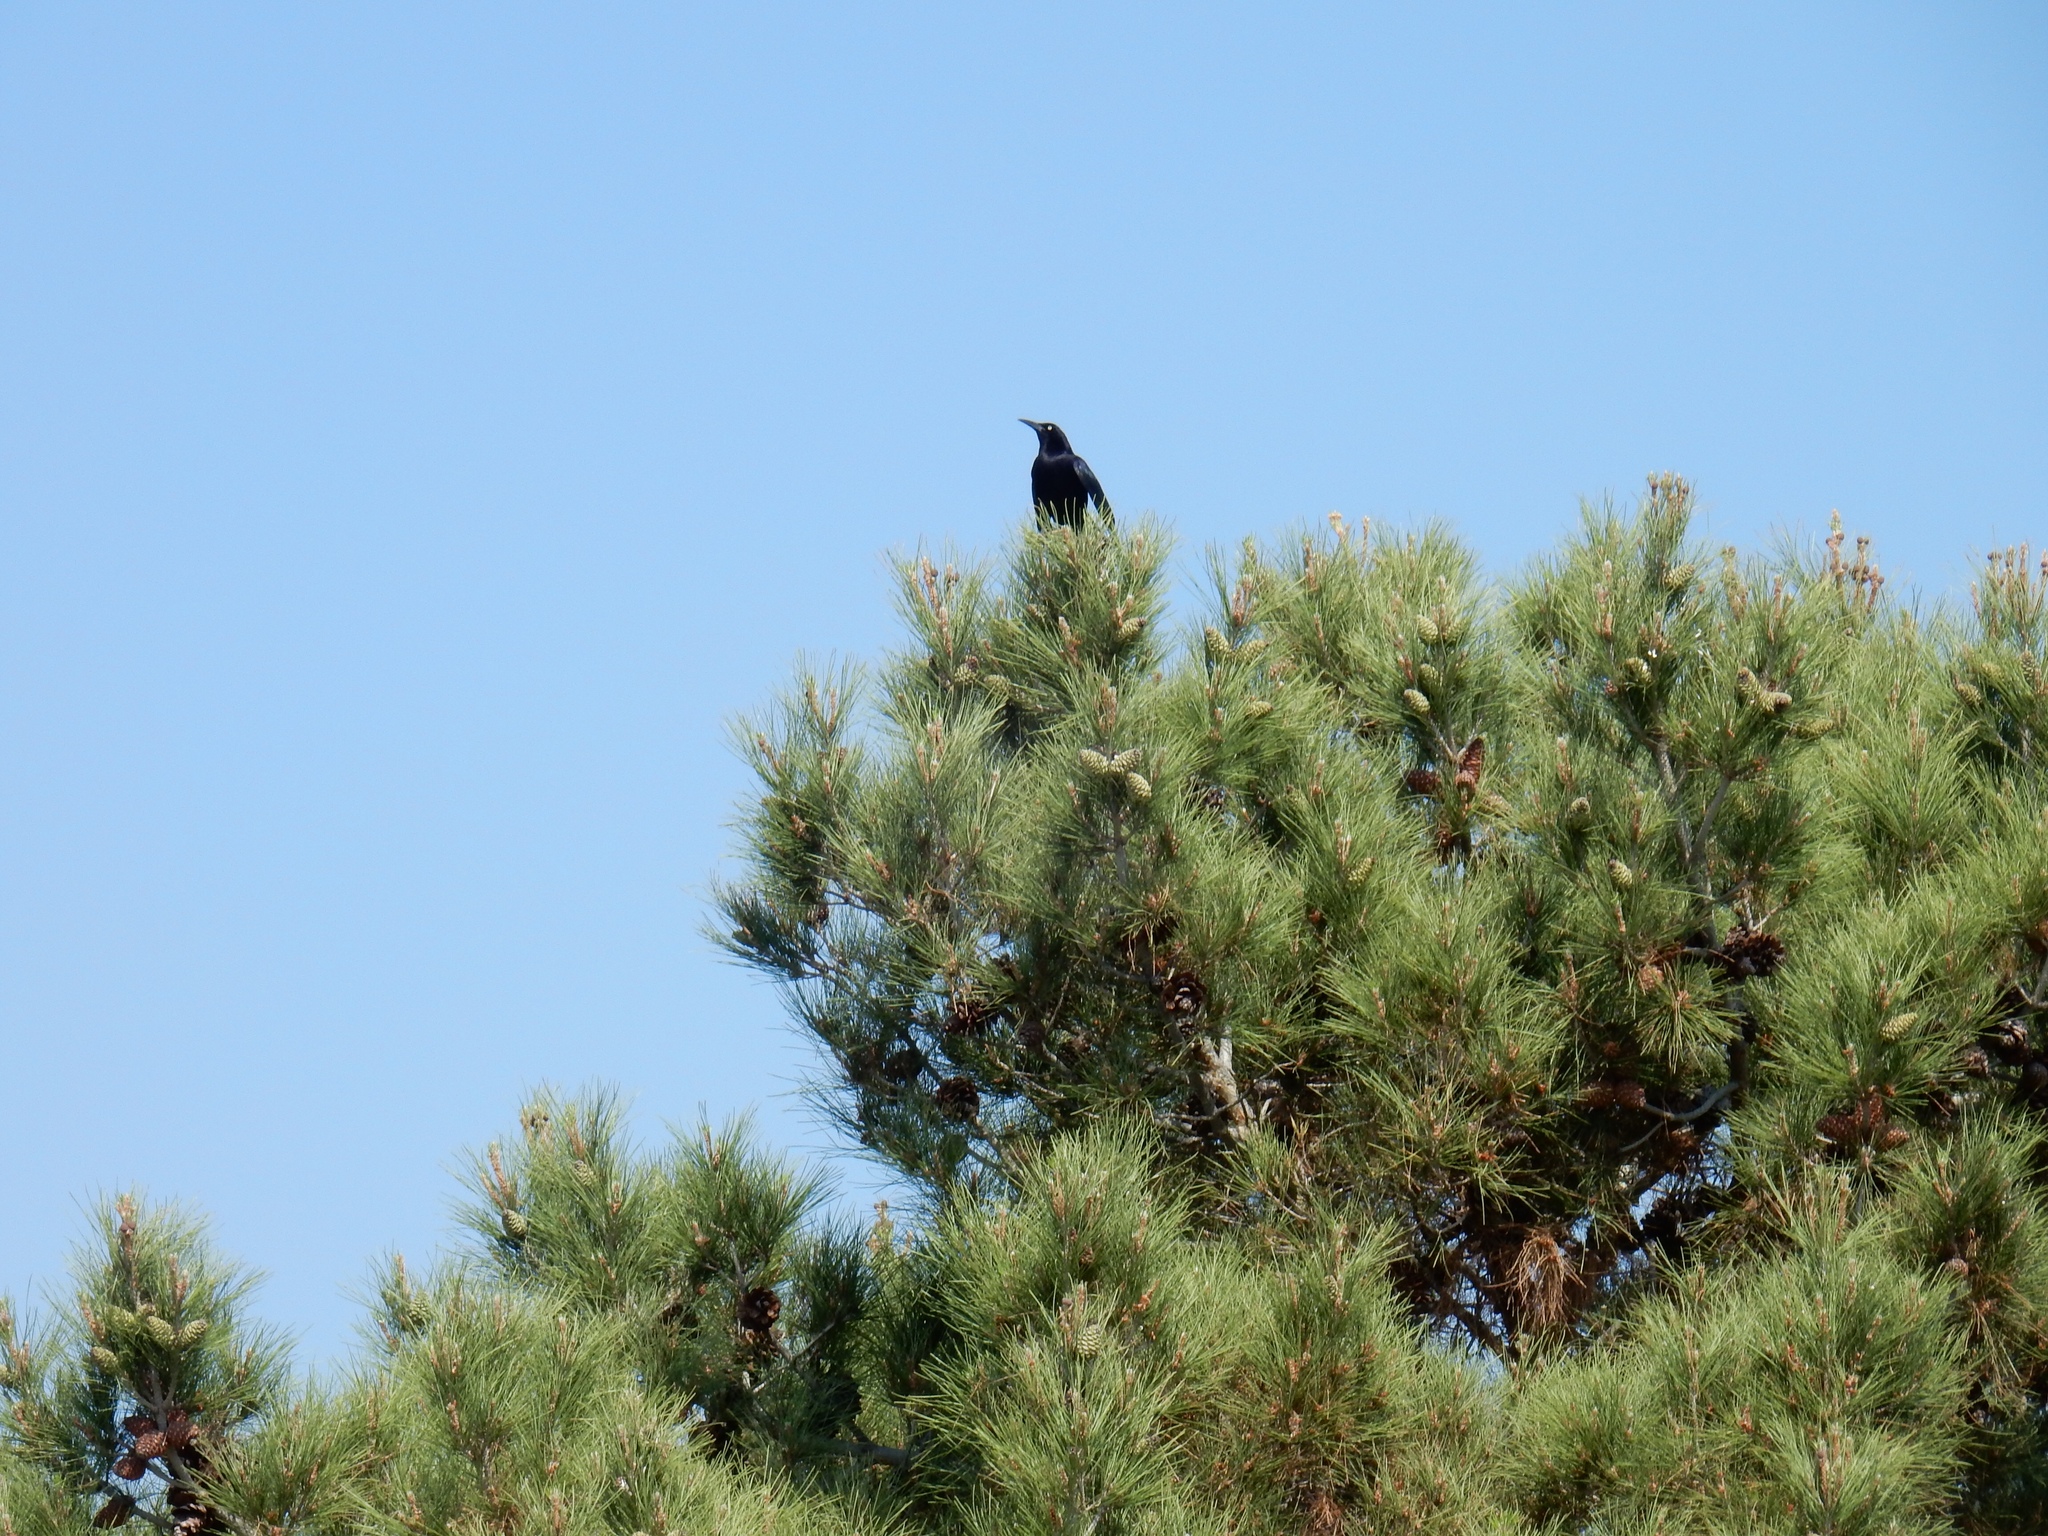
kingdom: Animalia
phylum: Chordata
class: Aves
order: Passeriformes
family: Icteridae
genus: Quiscalus
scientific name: Quiscalus mexicanus
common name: Great-tailed grackle
